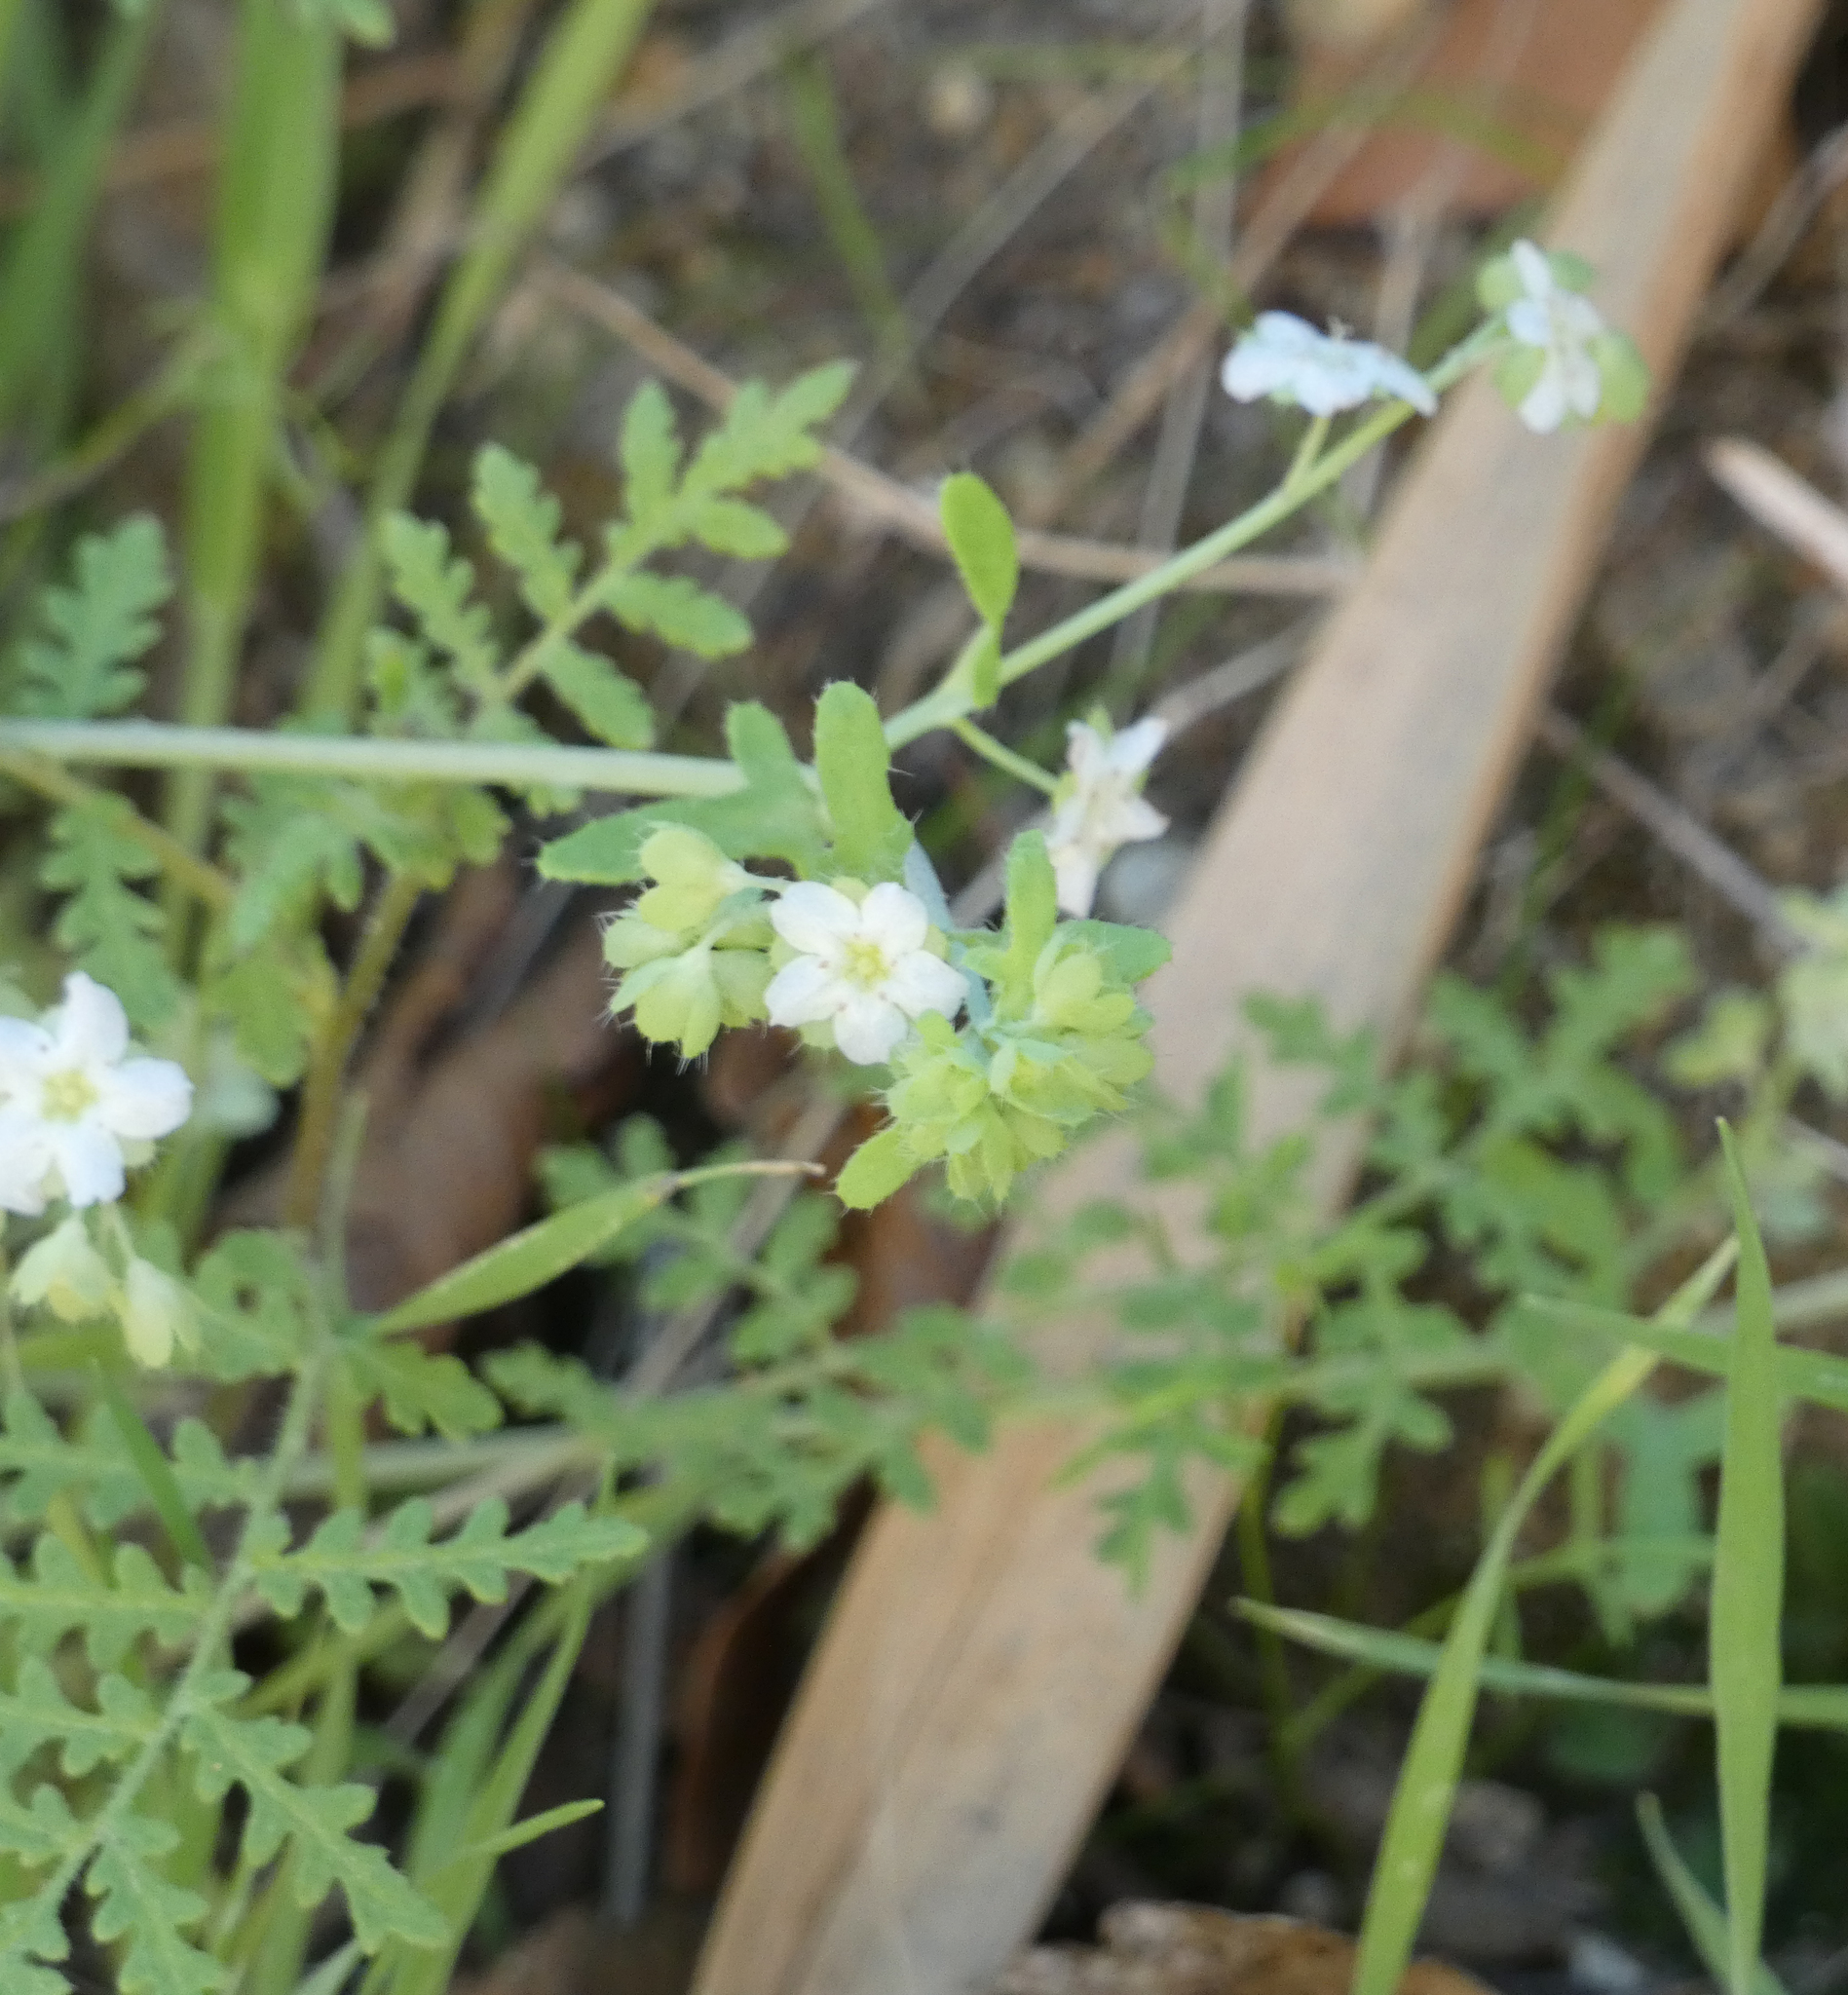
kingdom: Plantae
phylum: Tracheophyta
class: Magnoliopsida
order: Boraginales
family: Hydrophyllaceae
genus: Pholistoma
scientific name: Pholistoma membranaceum
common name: White fiesta-flower
